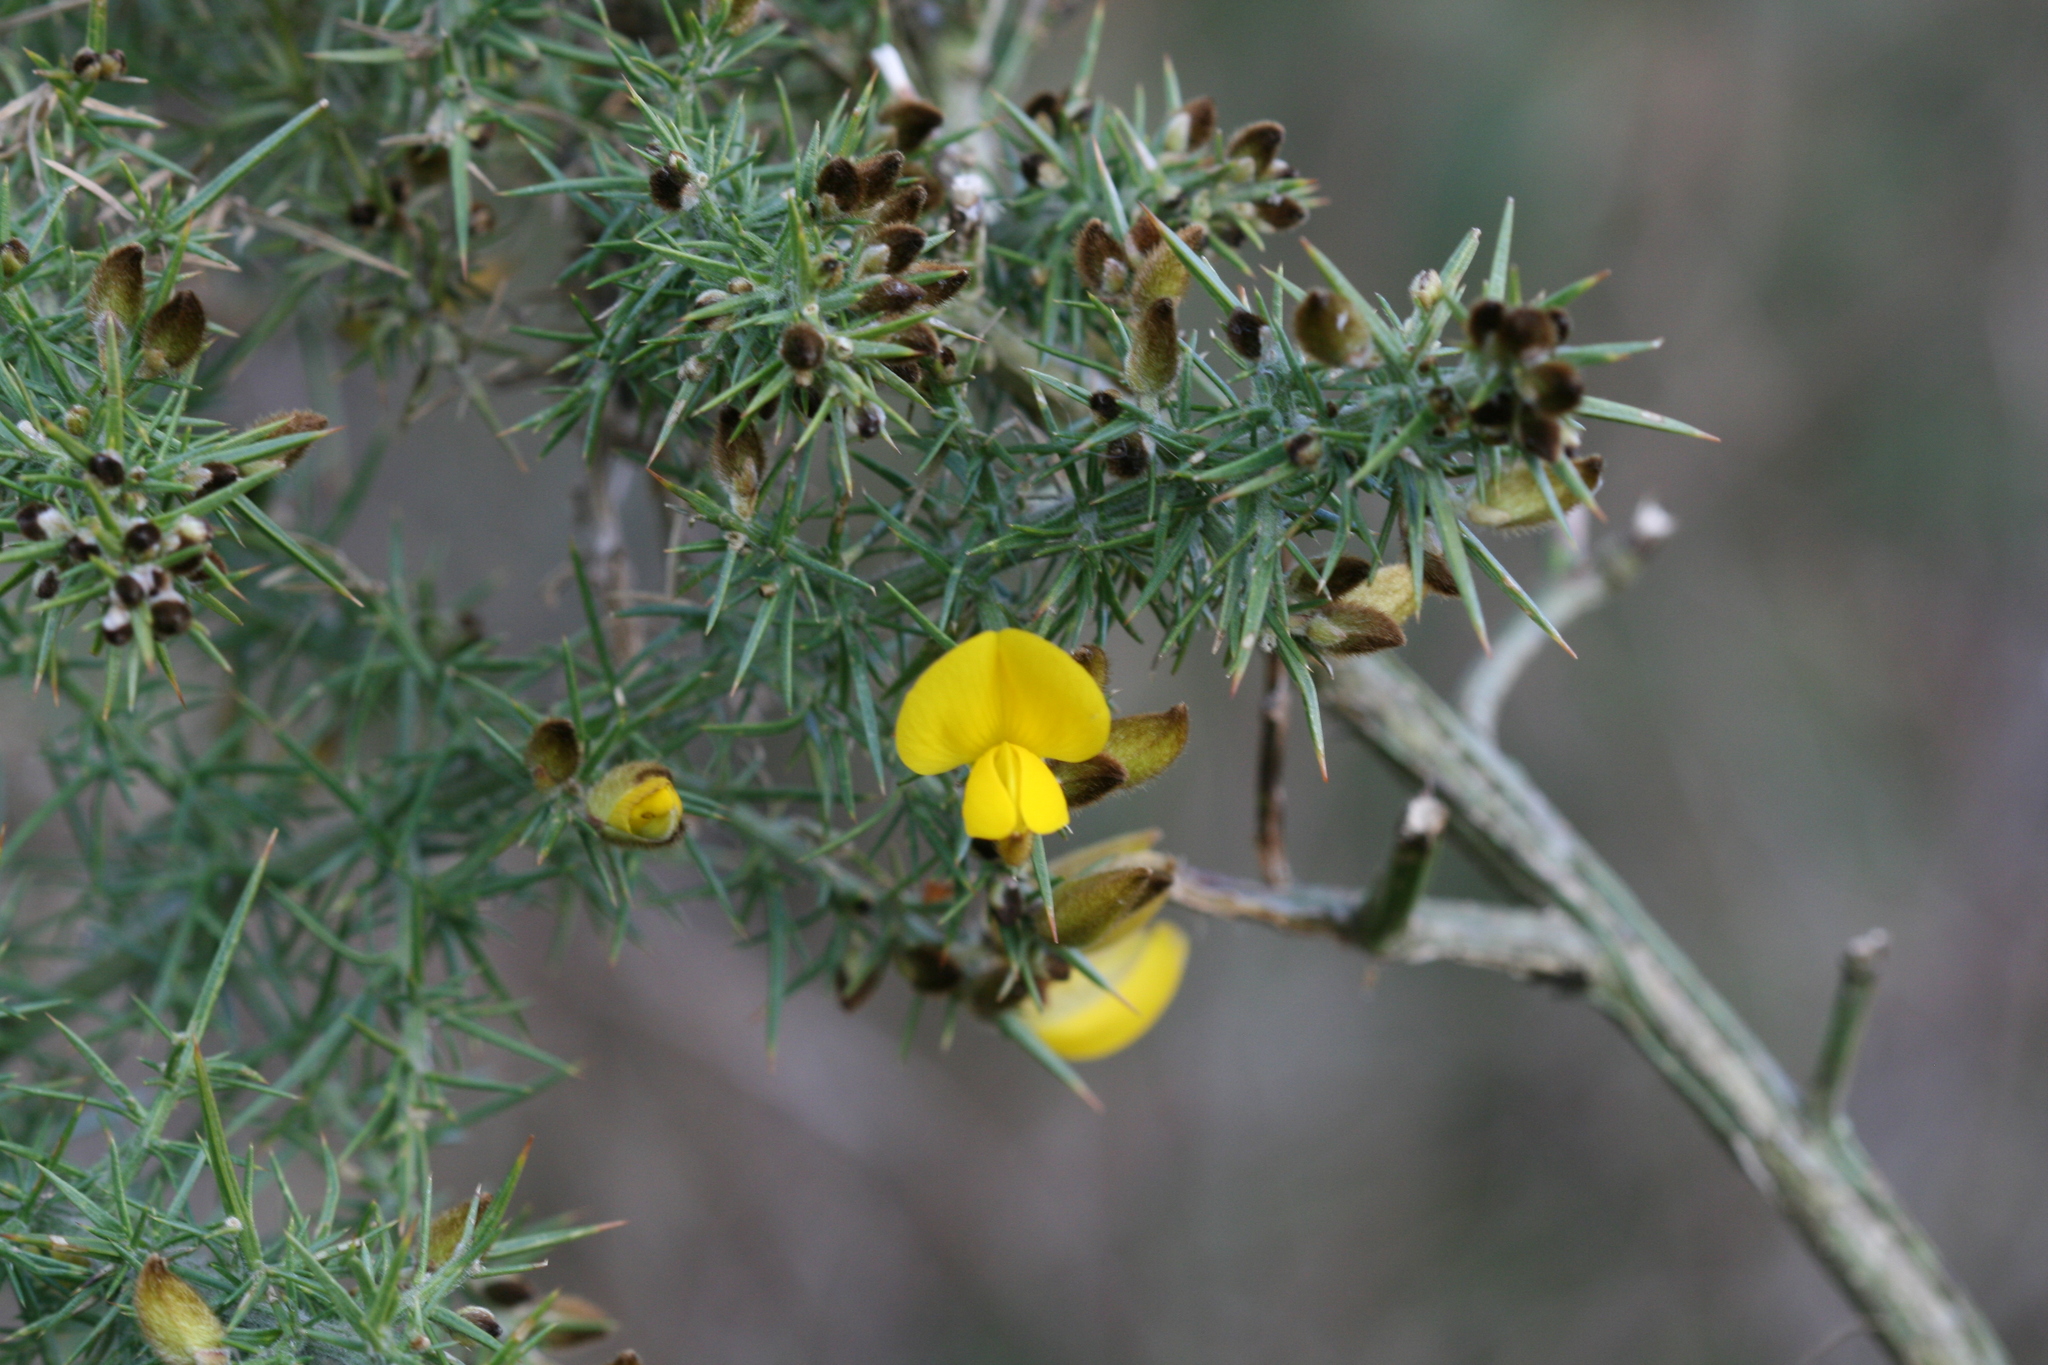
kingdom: Plantae
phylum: Tracheophyta
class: Magnoliopsida
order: Fabales
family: Fabaceae
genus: Ulex
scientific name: Ulex europaeus
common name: Common gorse
